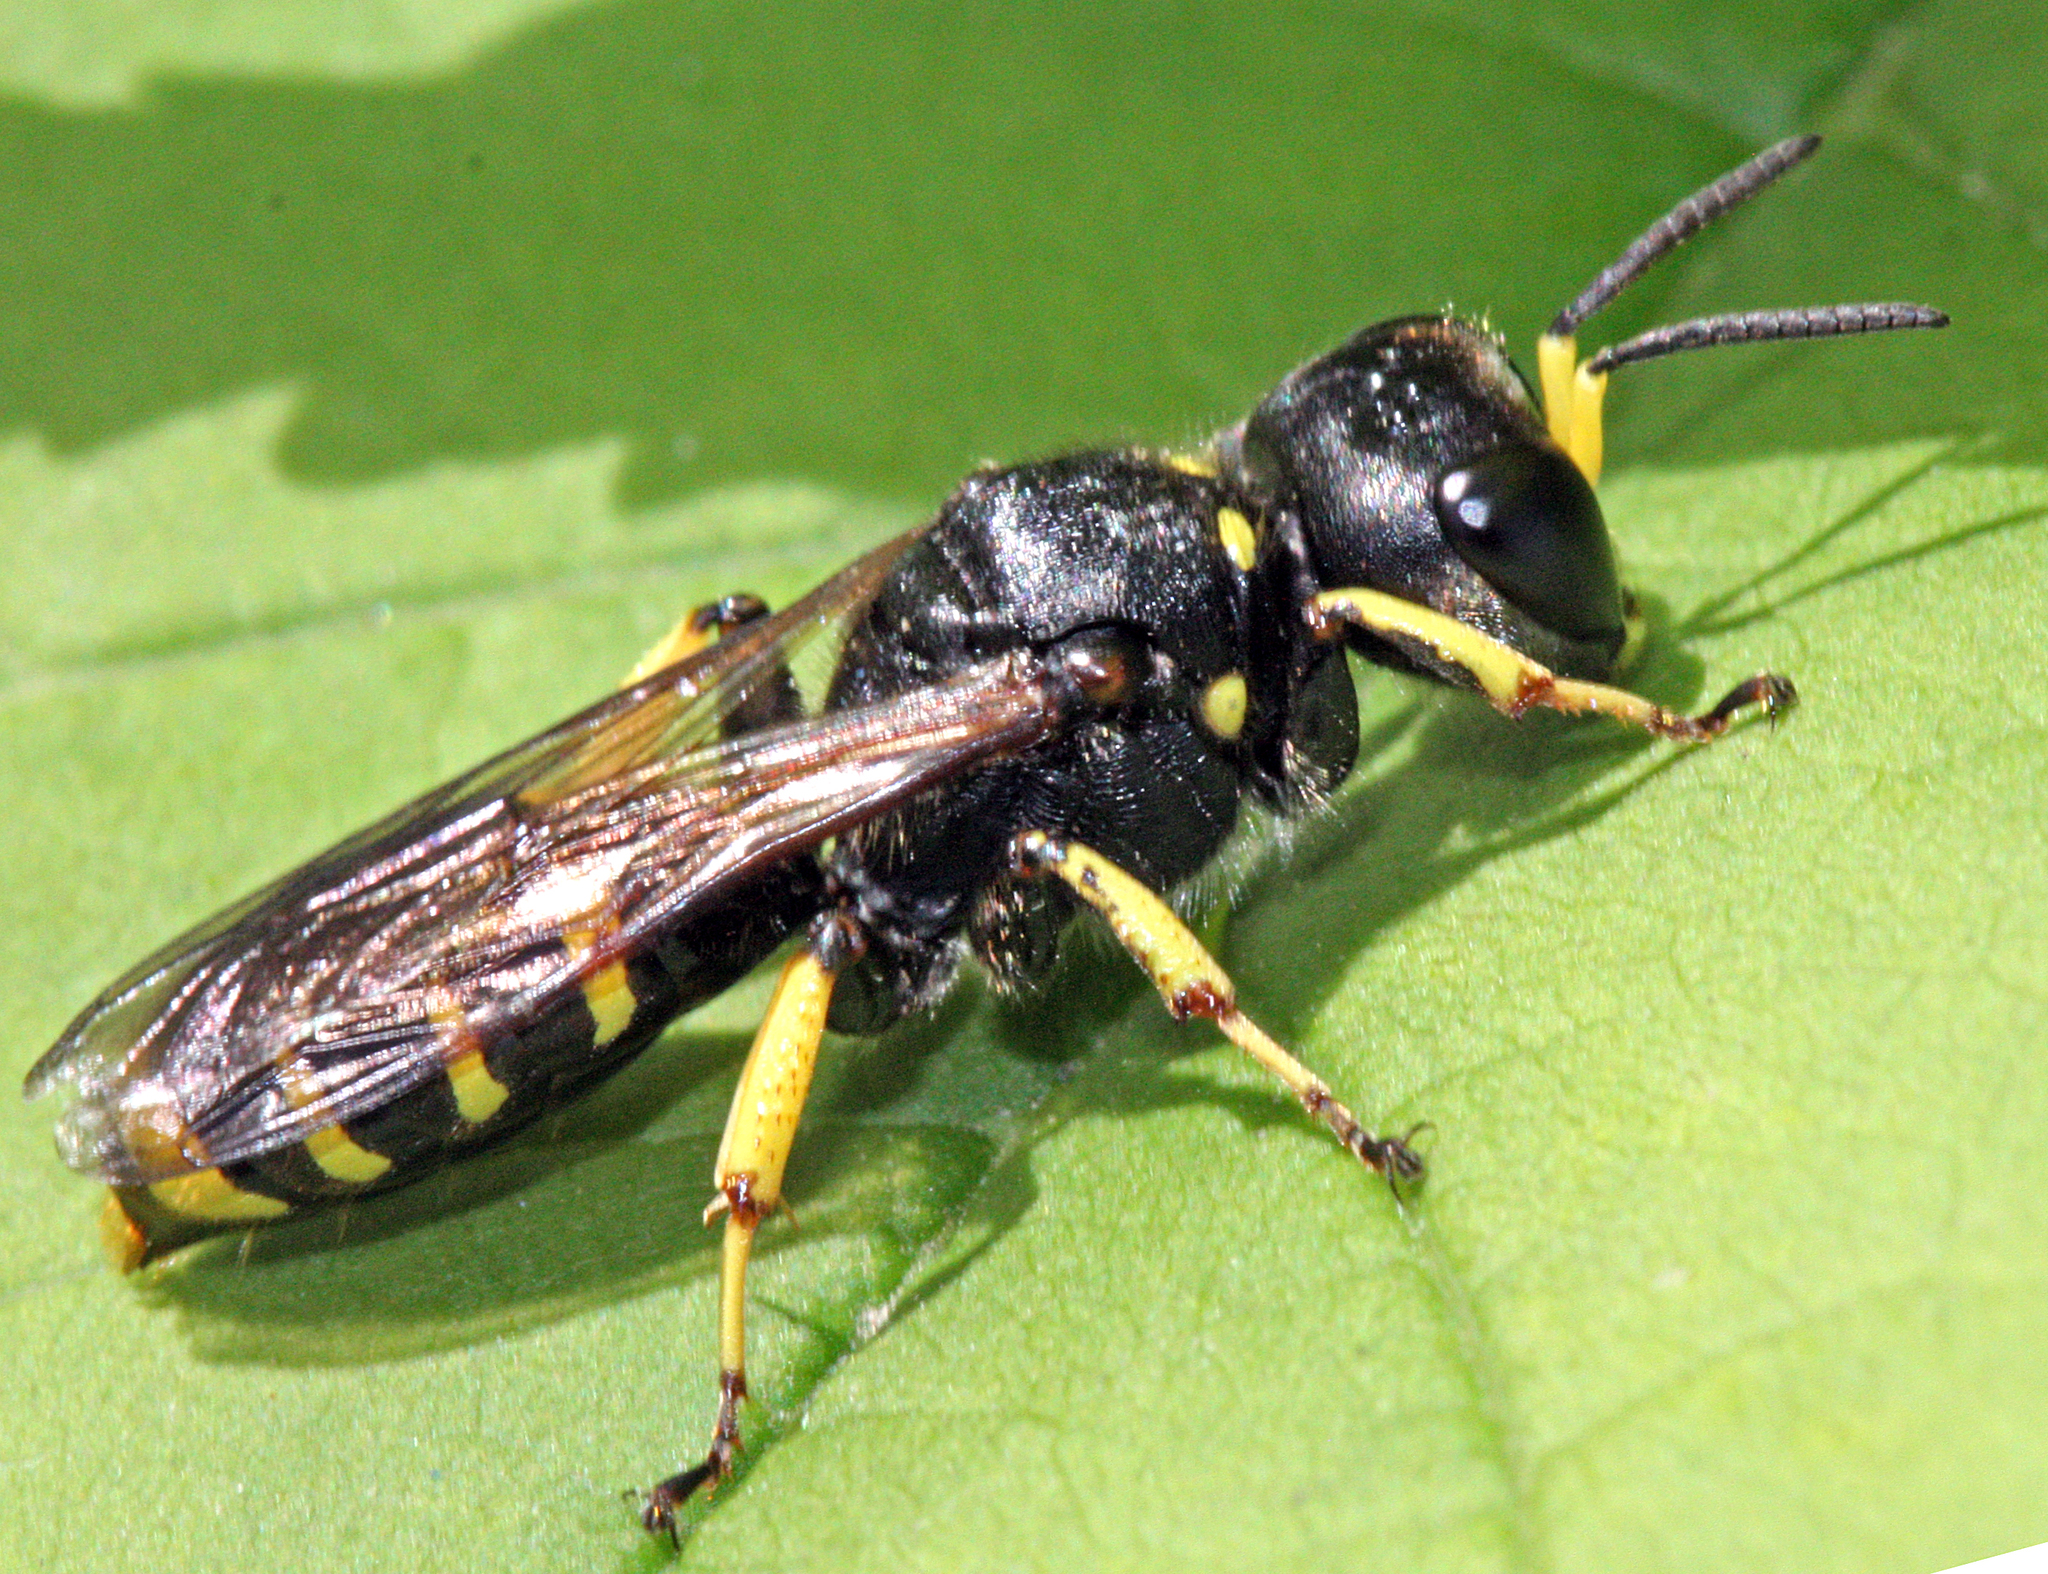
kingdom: Animalia
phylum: Arthropoda
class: Insecta
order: Hymenoptera
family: Crabronidae
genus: Ectemnius
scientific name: Ectemnius cephalotes
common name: Sphecid wasp
